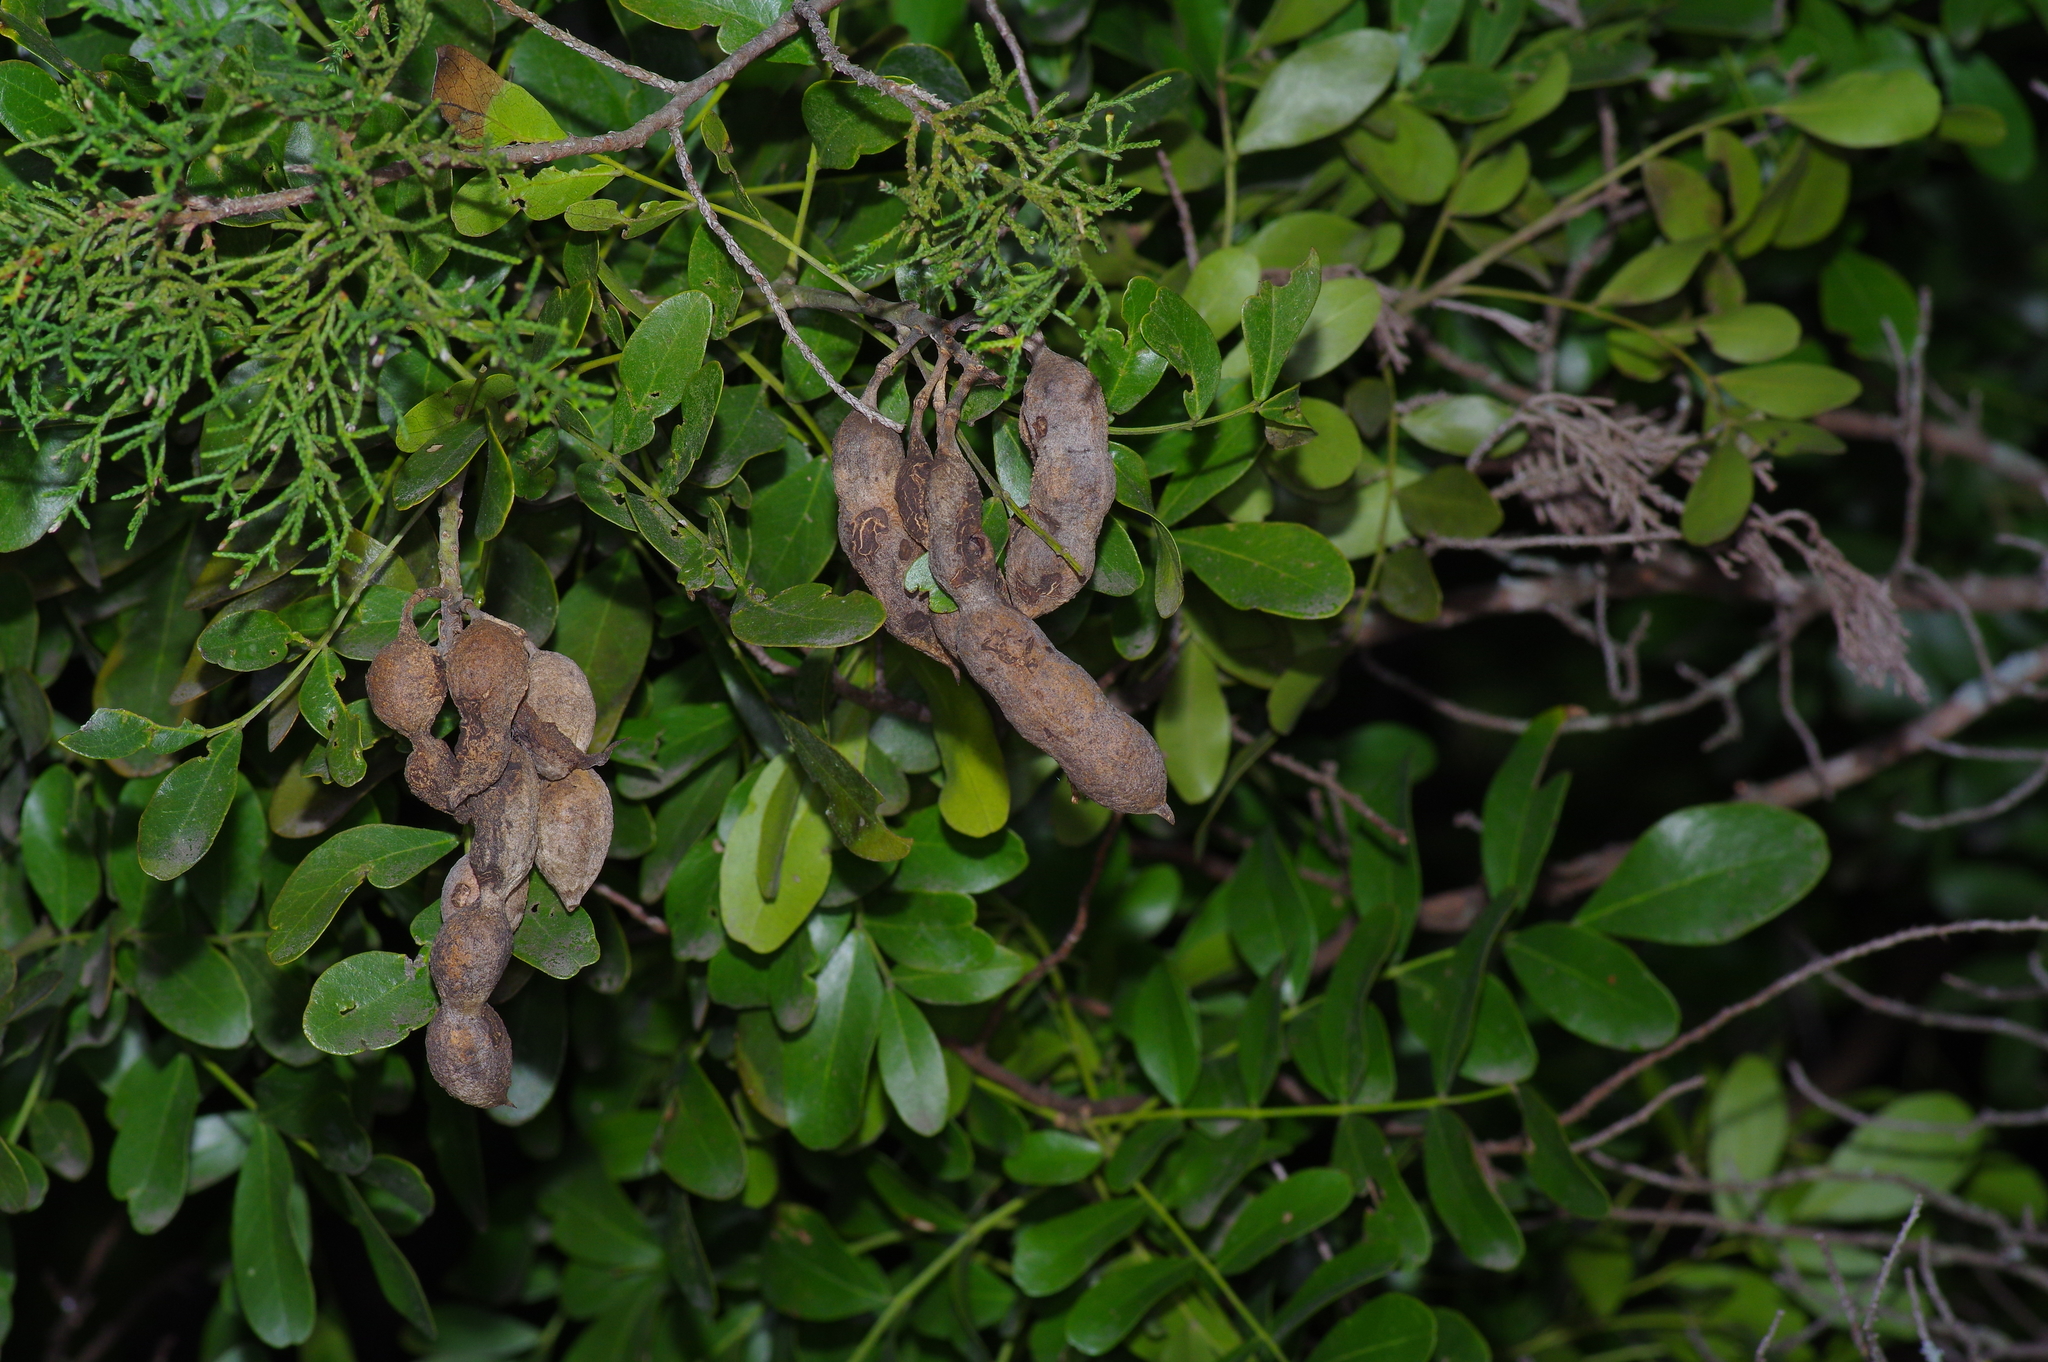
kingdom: Plantae
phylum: Tracheophyta
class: Magnoliopsida
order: Fabales
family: Fabaceae
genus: Dermatophyllum
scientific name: Dermatophyllum secundiflorum
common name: Texas-mountain-laurel
